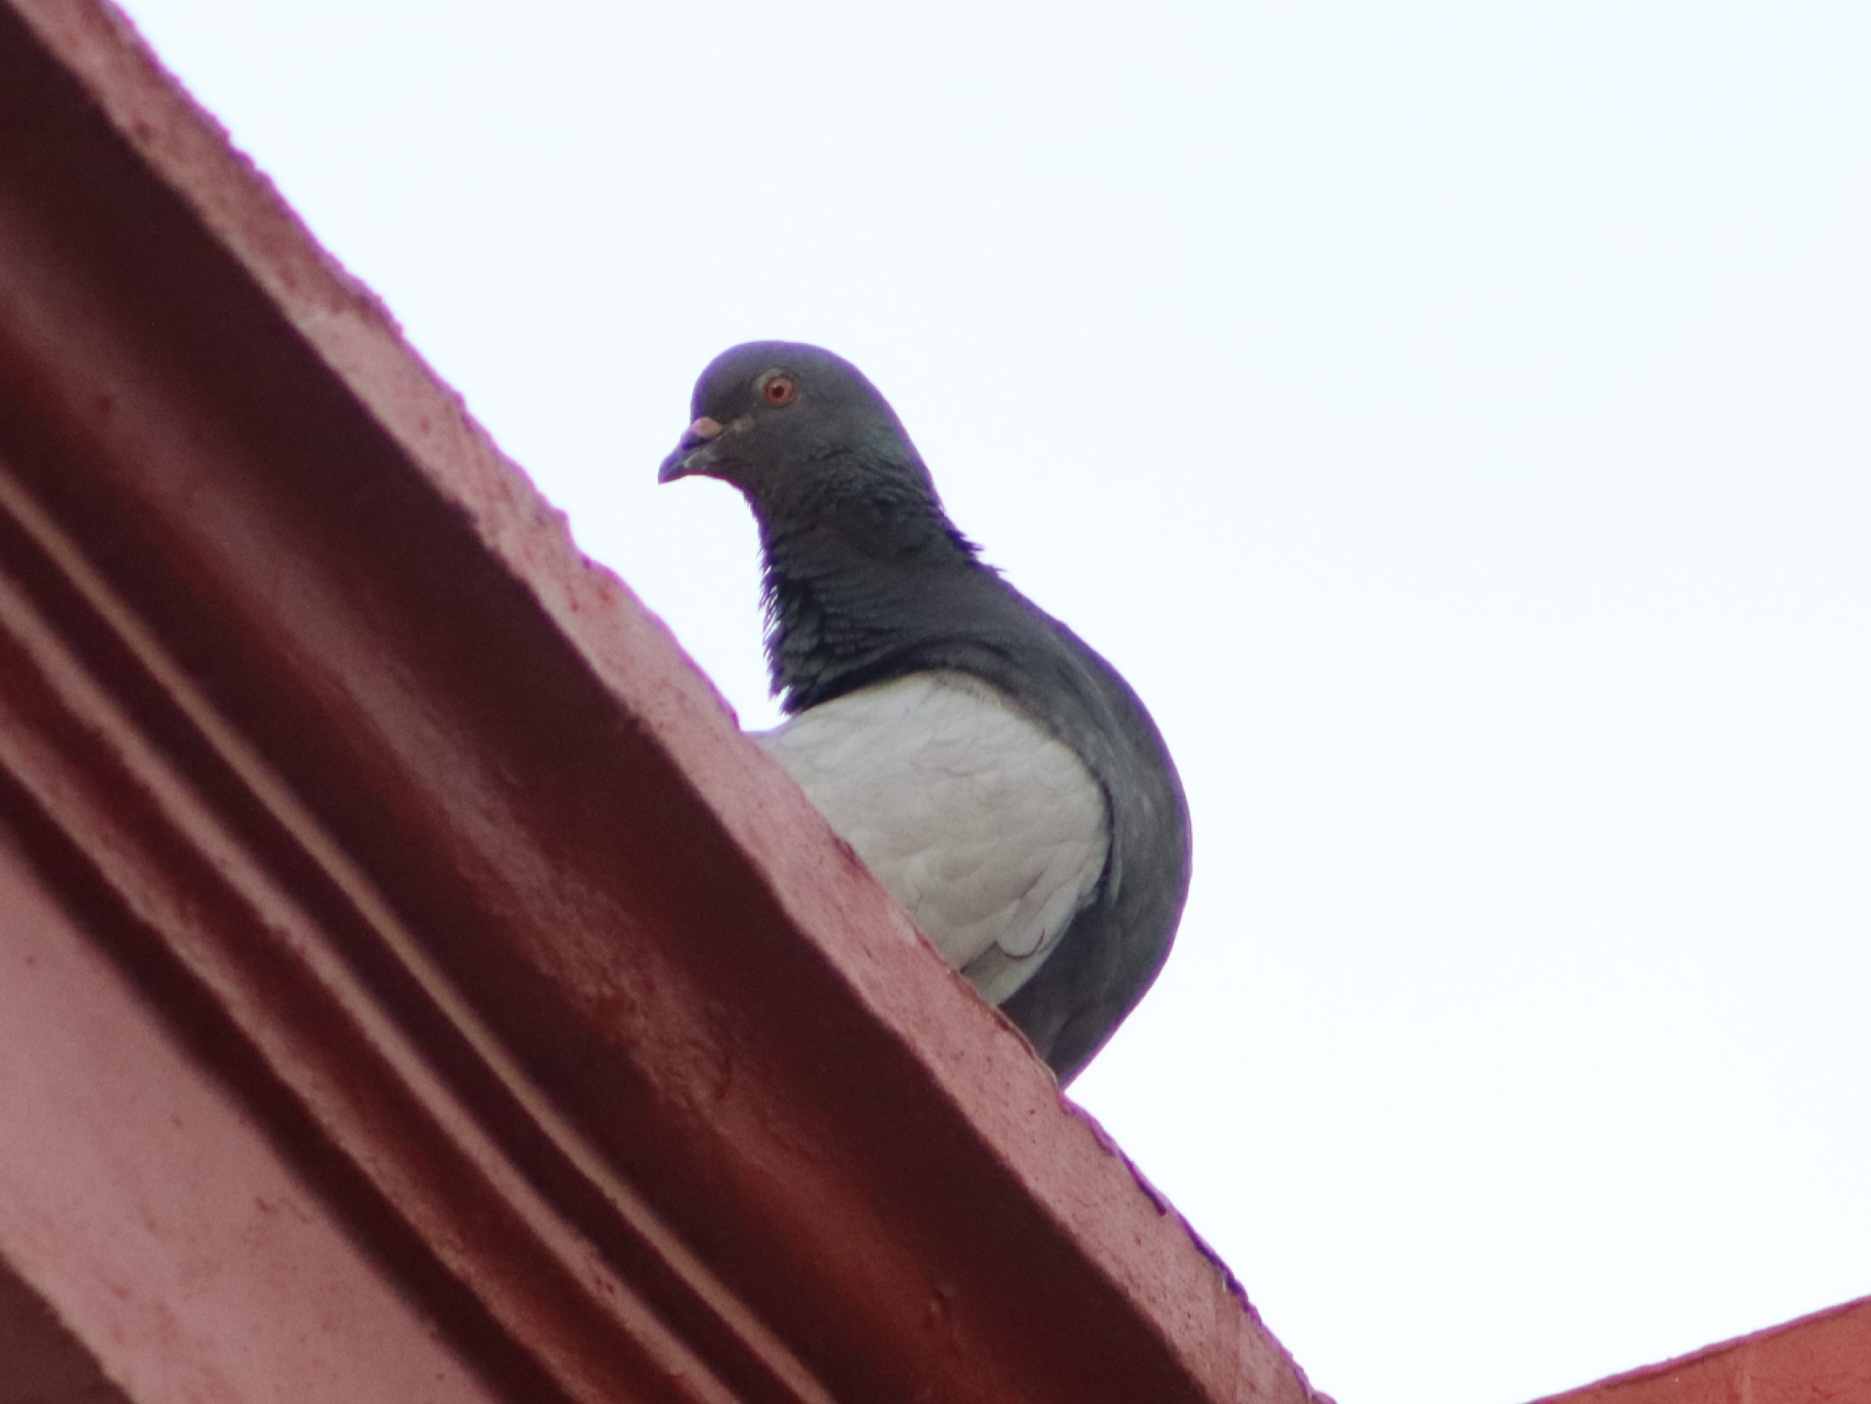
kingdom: Animalia
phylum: Chordata
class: Aves
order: Columbiformes
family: Columbidae
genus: Columba
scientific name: Columba livia
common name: Rock pigeon
